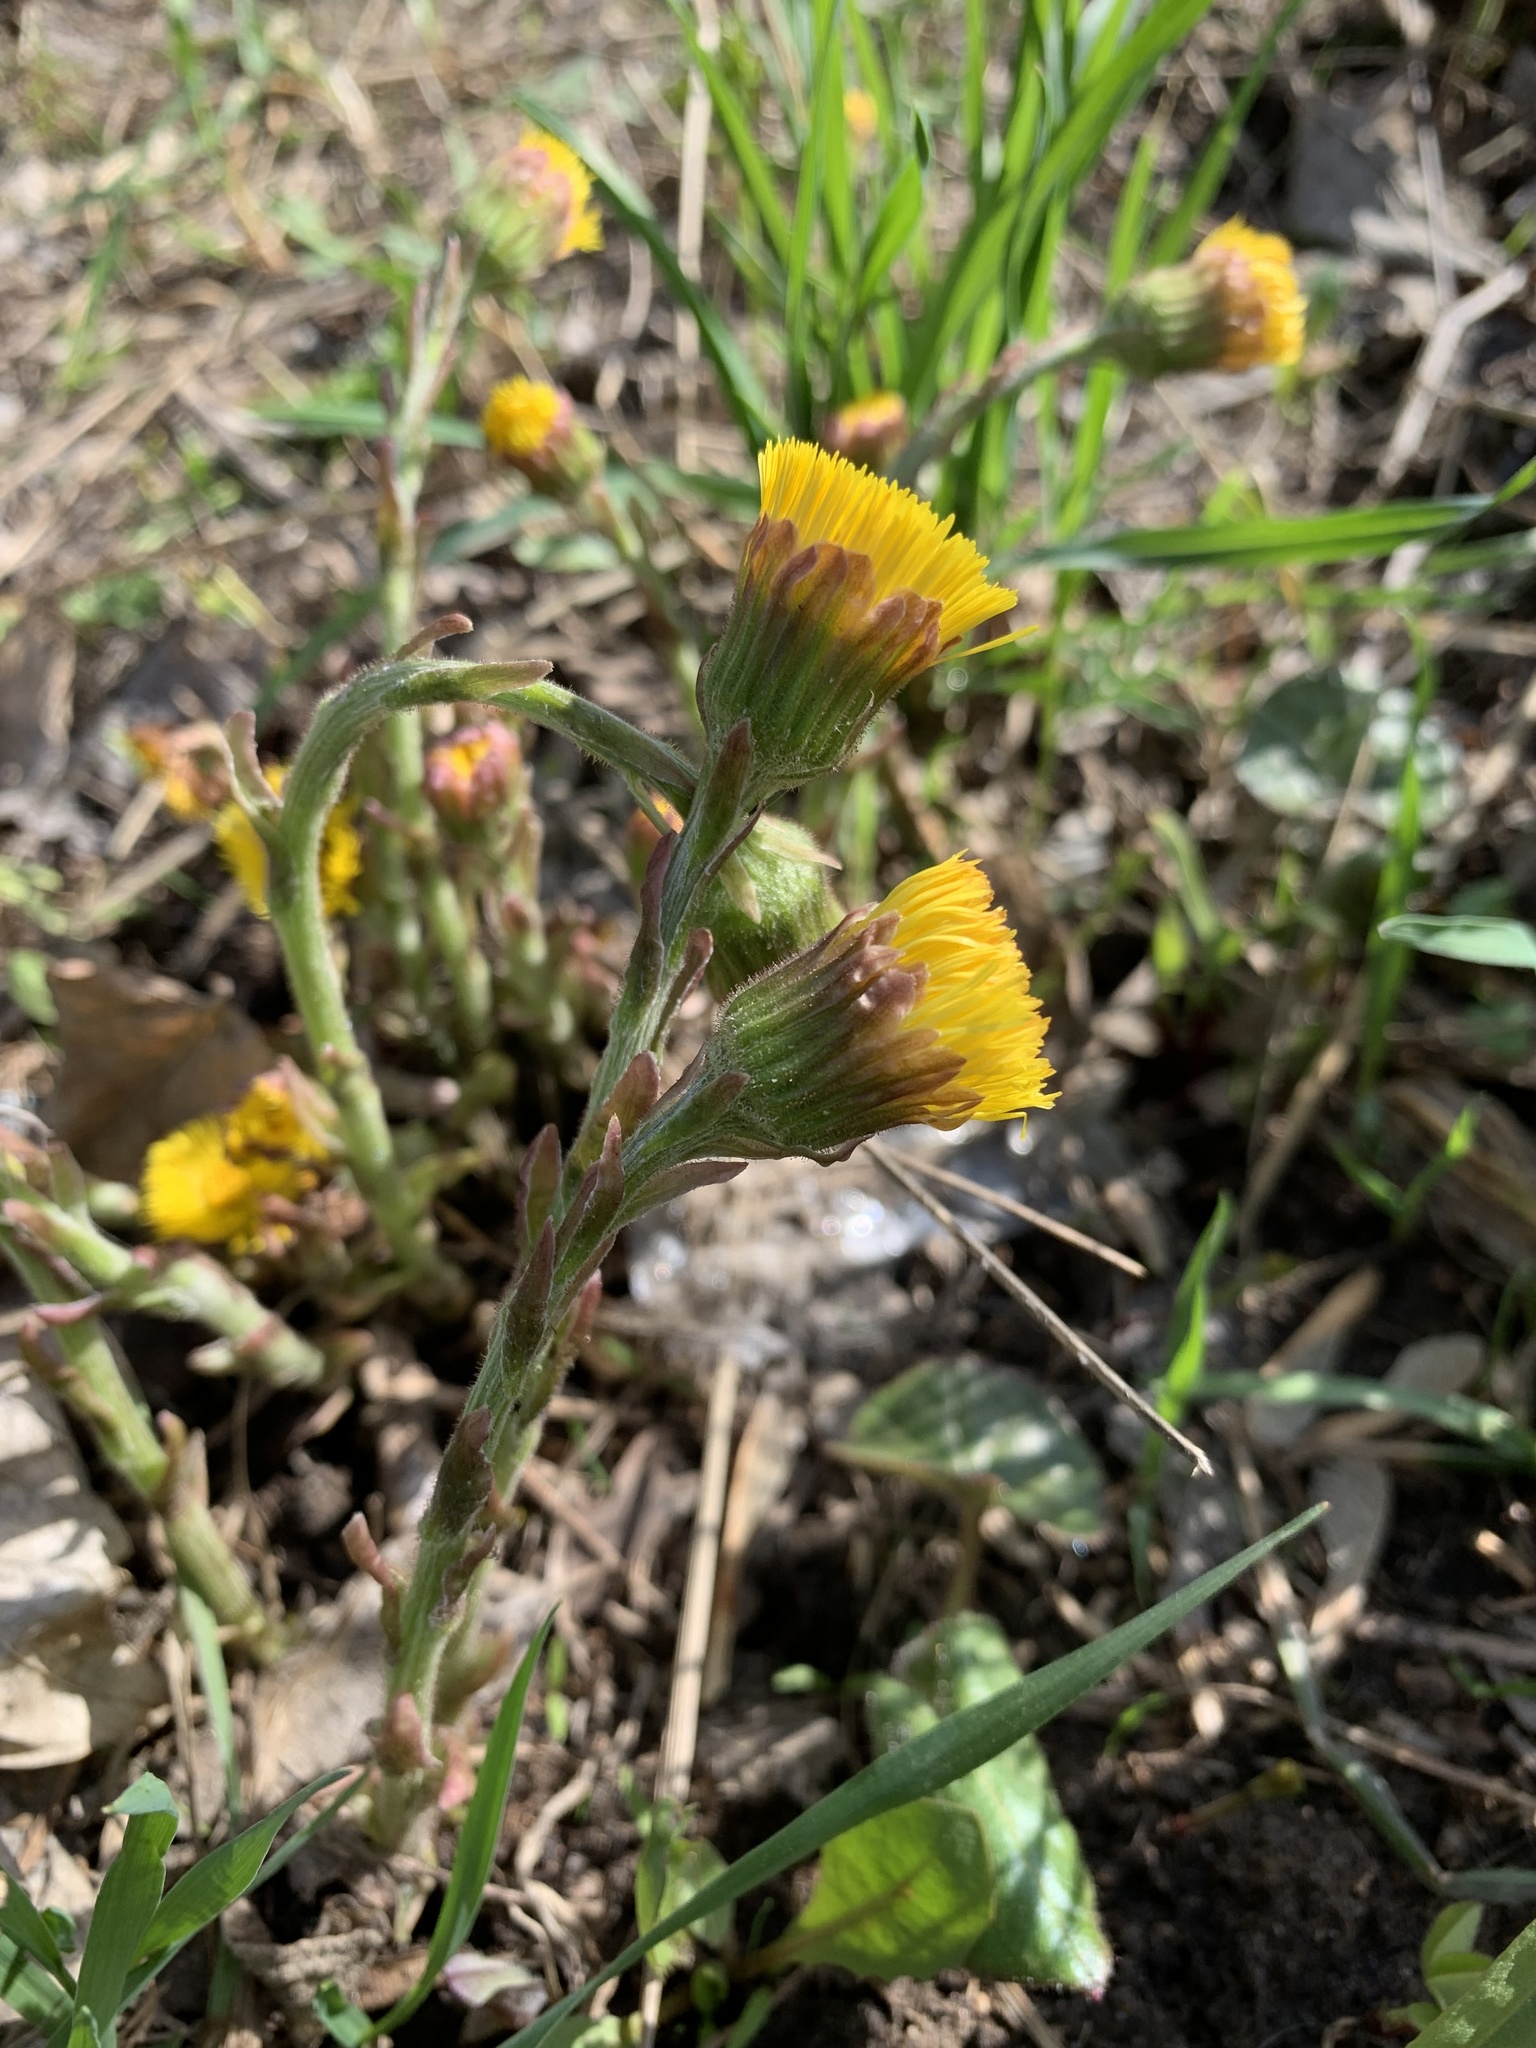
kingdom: Plantae
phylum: Tracheophyta
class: Magnoliopsida
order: Asterales
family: Asteraceae
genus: Tussilago
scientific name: Tussilago farfara
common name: Coltsfoot
